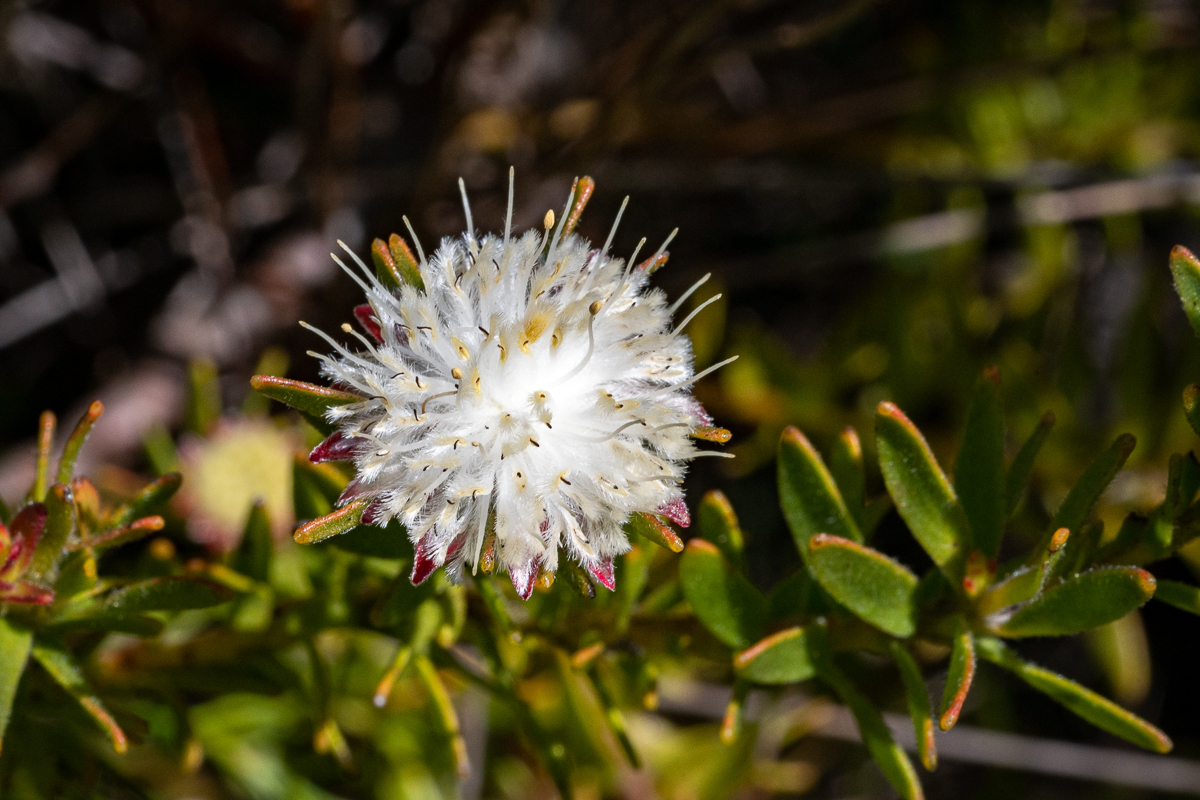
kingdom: Plantae
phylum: Tracheophyta
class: Magnoliopsida
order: Proteales
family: Proteaceae
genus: Diastella
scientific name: Diastella fraterna
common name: Palmiet silkypuff
